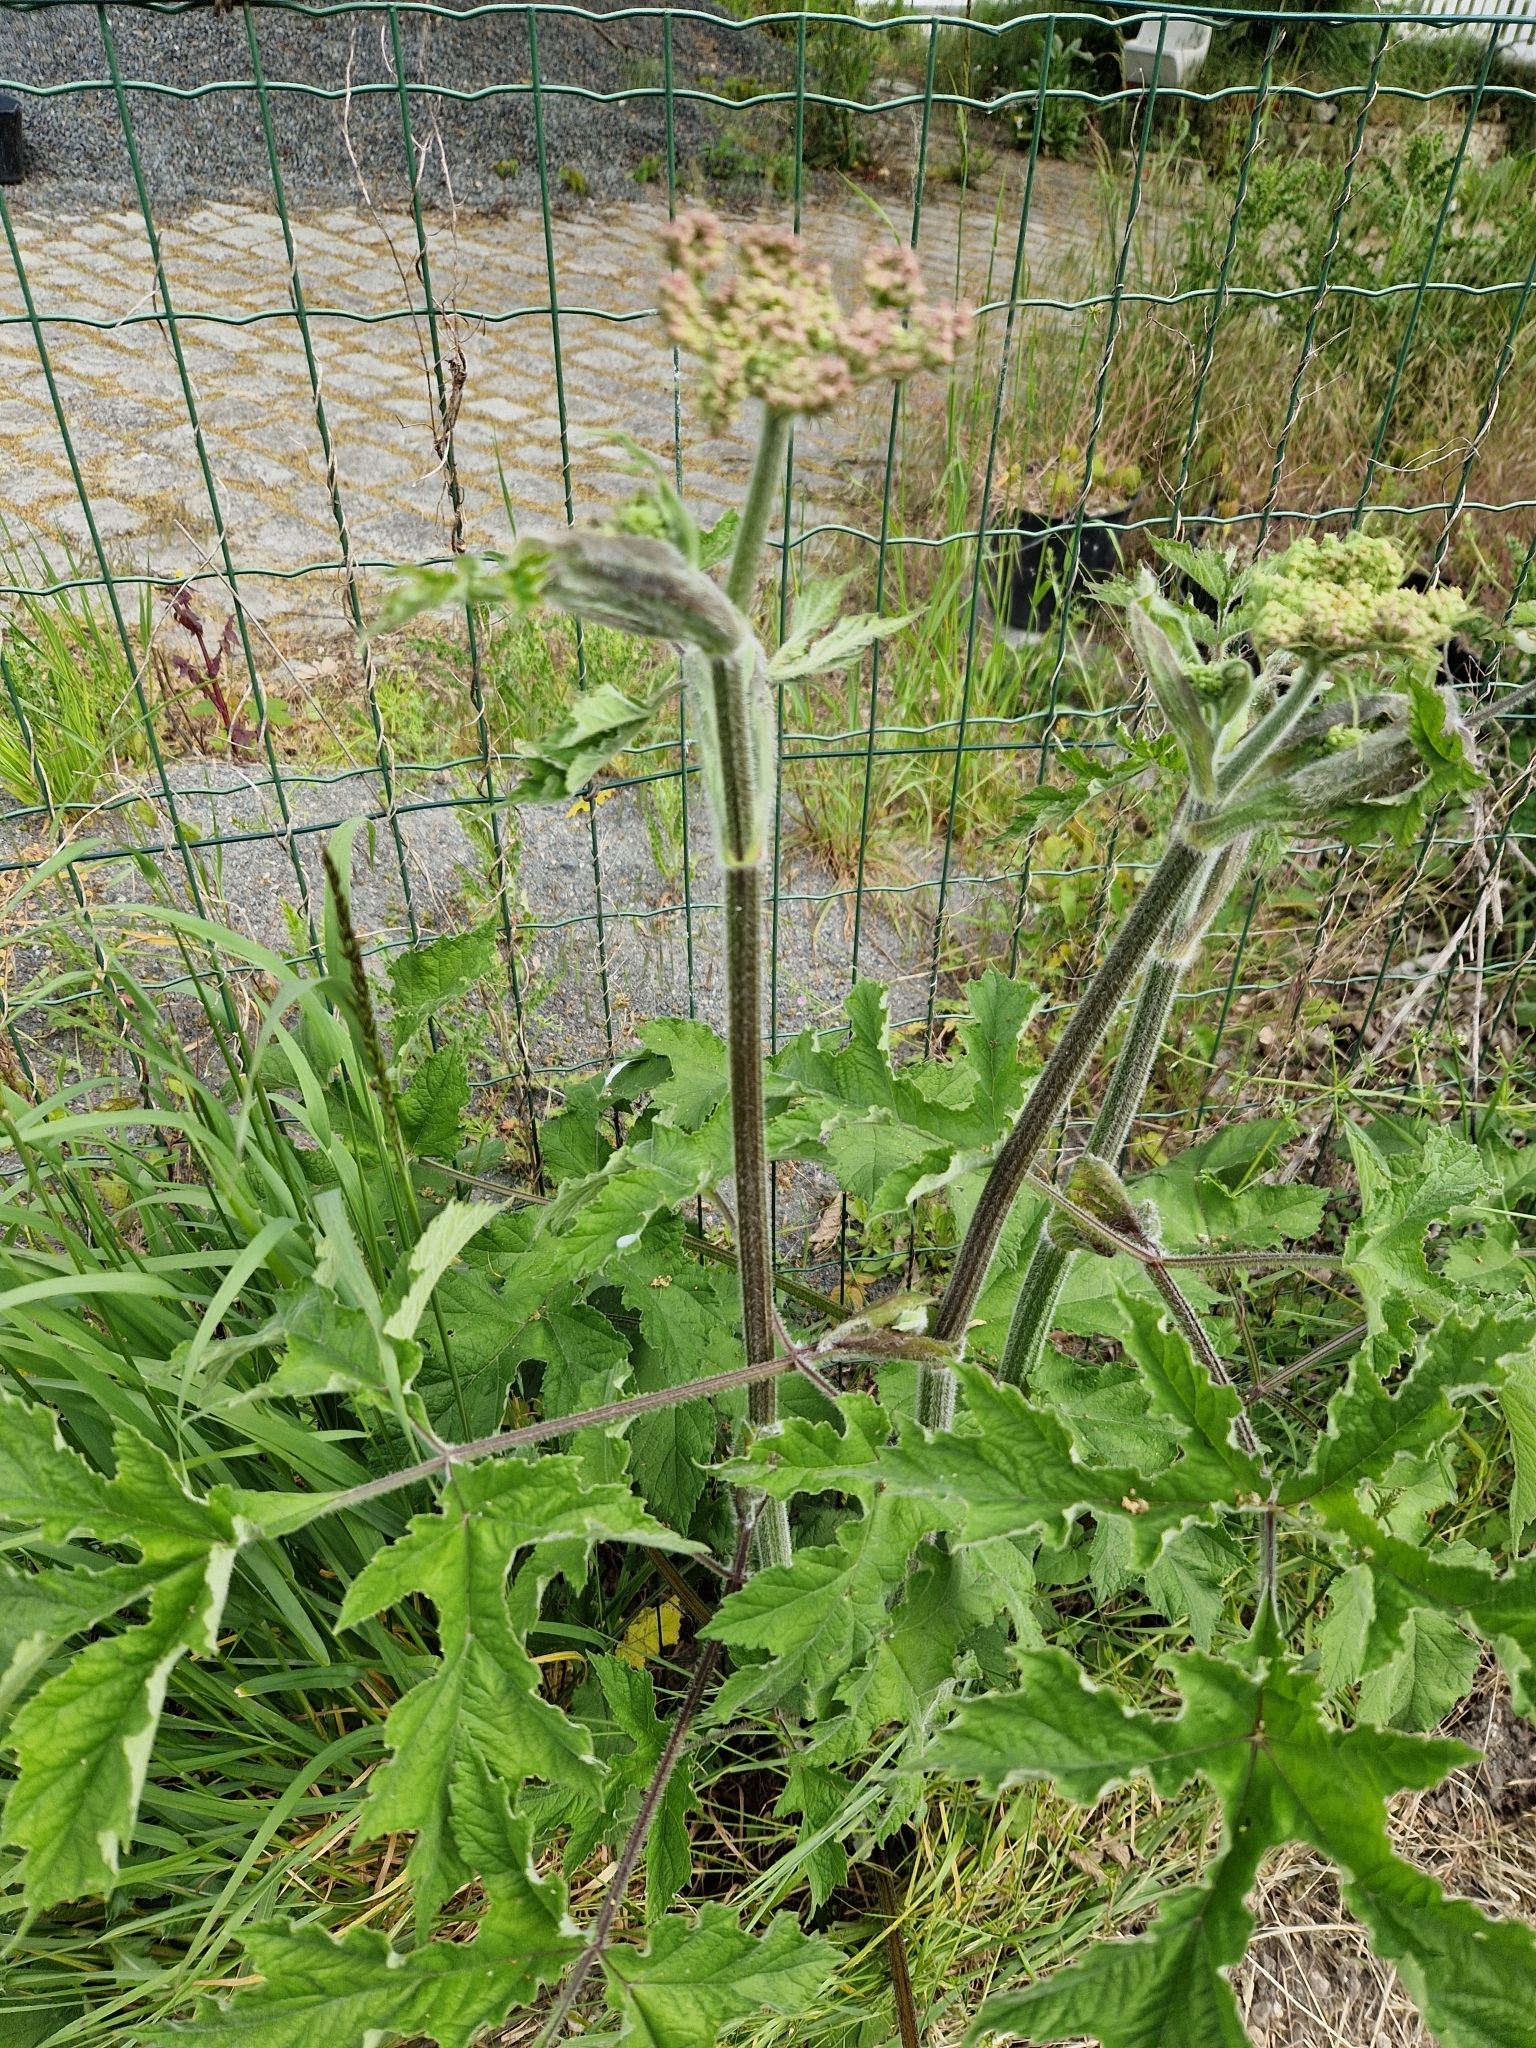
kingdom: Plantae
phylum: Tracheophyta
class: Magnoliopsida
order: Apiales
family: Apiaceae
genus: Heracleum
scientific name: Heracleum sphondylium
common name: Hogweed
